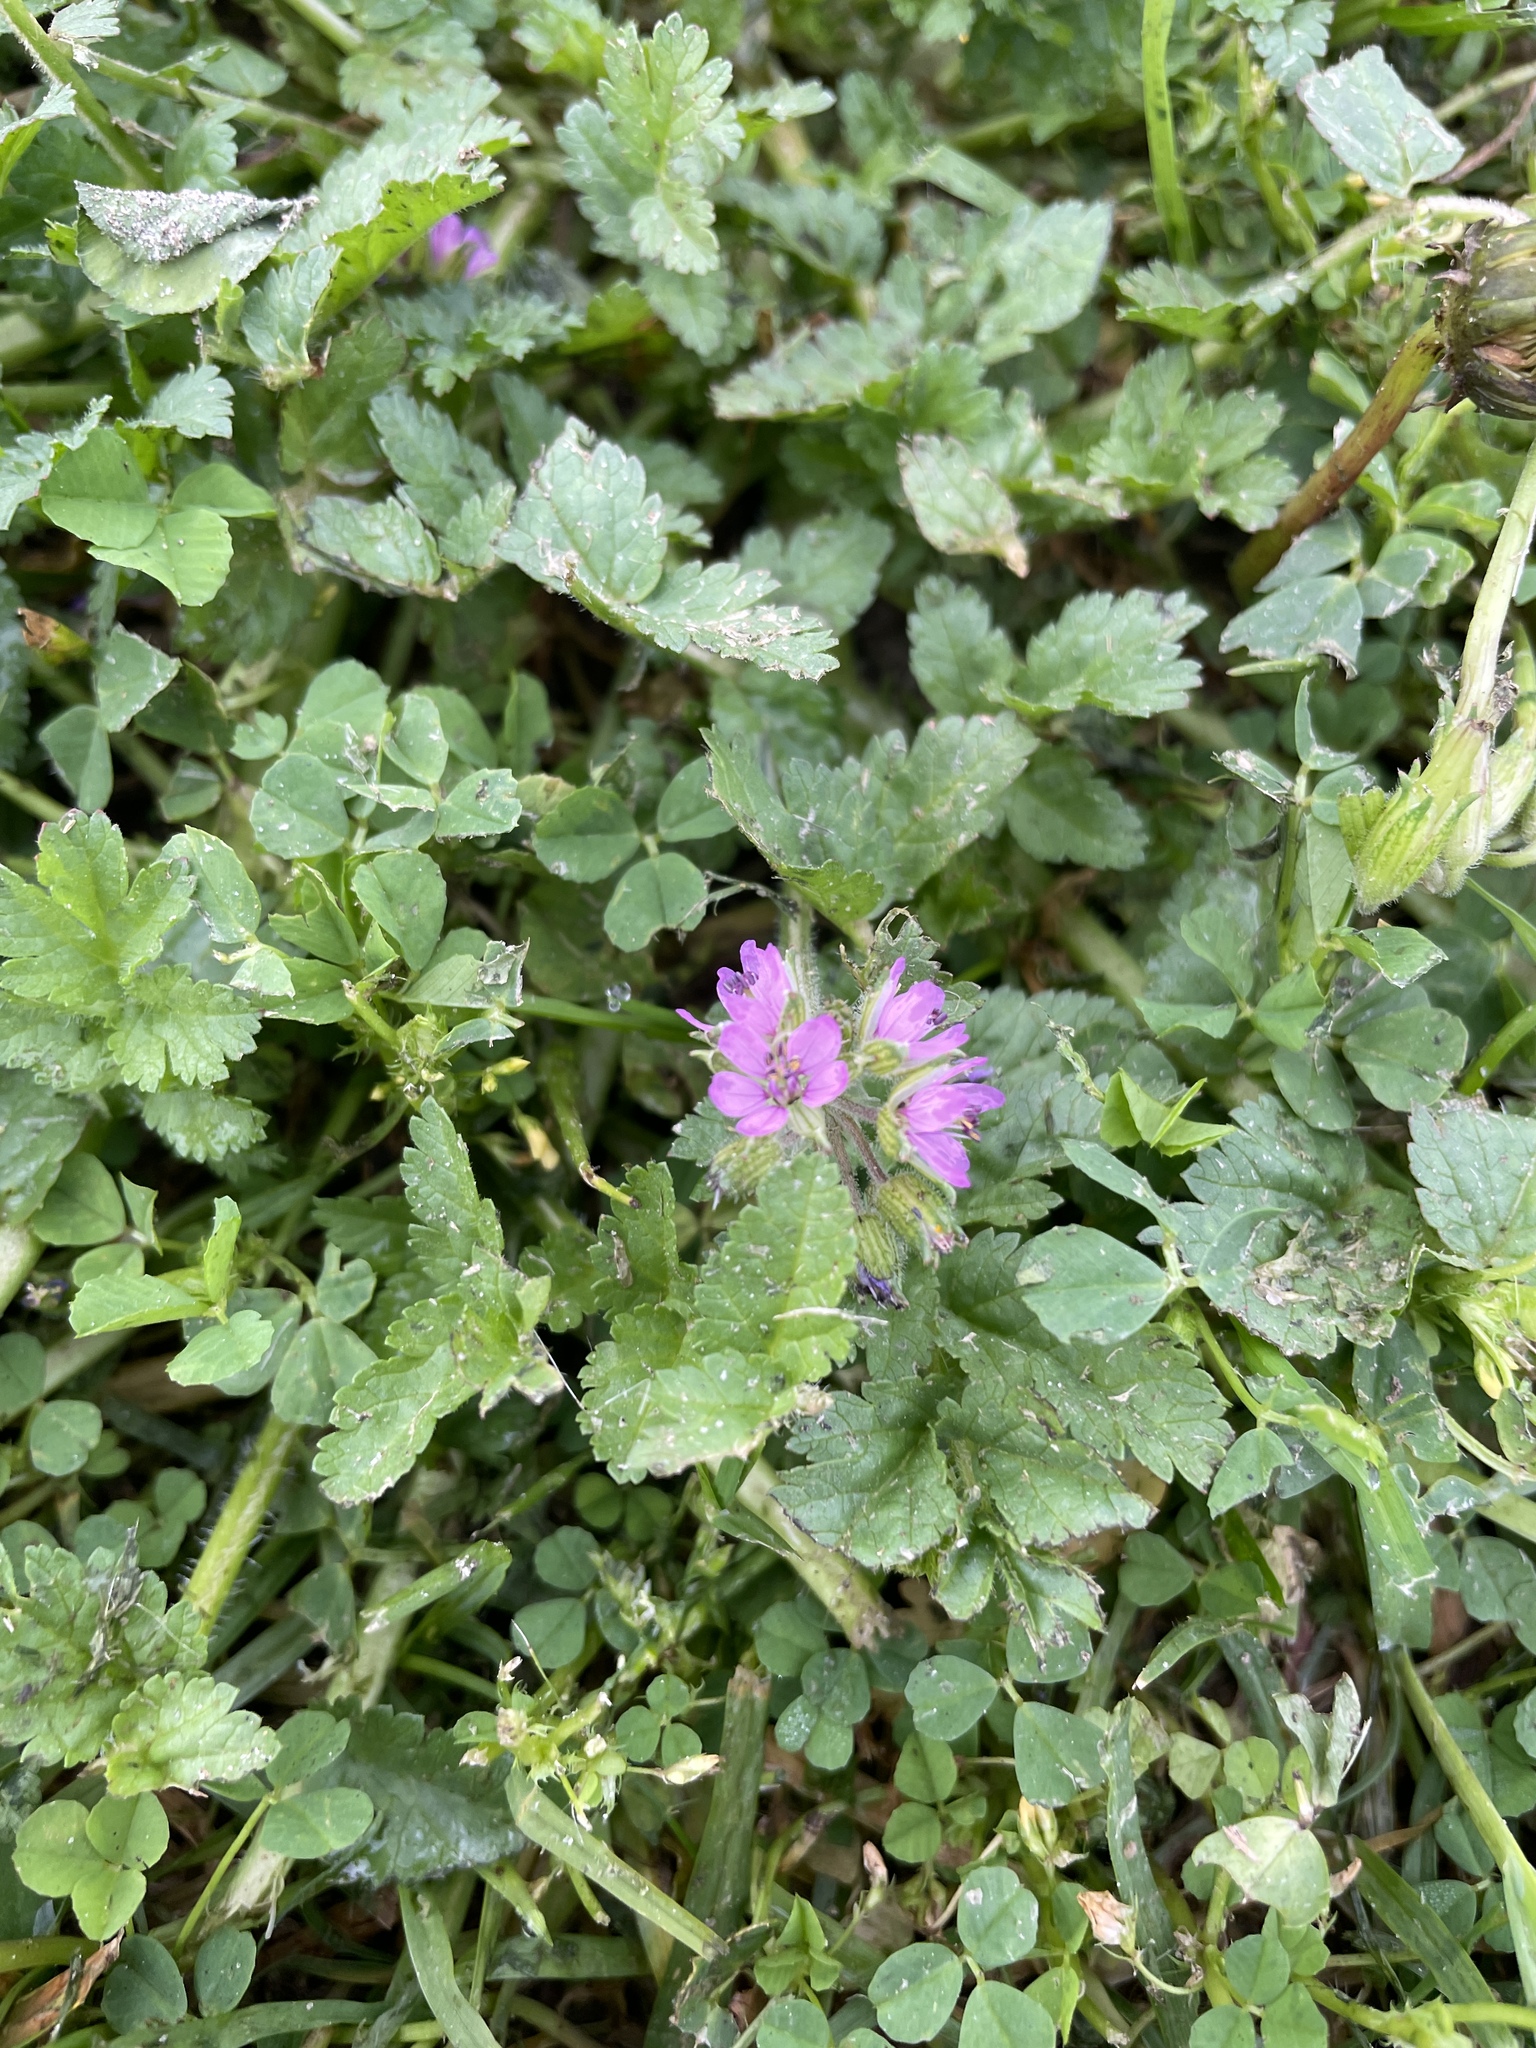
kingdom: Plantae
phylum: Tracheophyta
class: Magnoliopsida
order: Geraniales
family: Geraniaceae
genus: Erodium
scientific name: Erodium moschatum
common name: Musk stork's-bill
